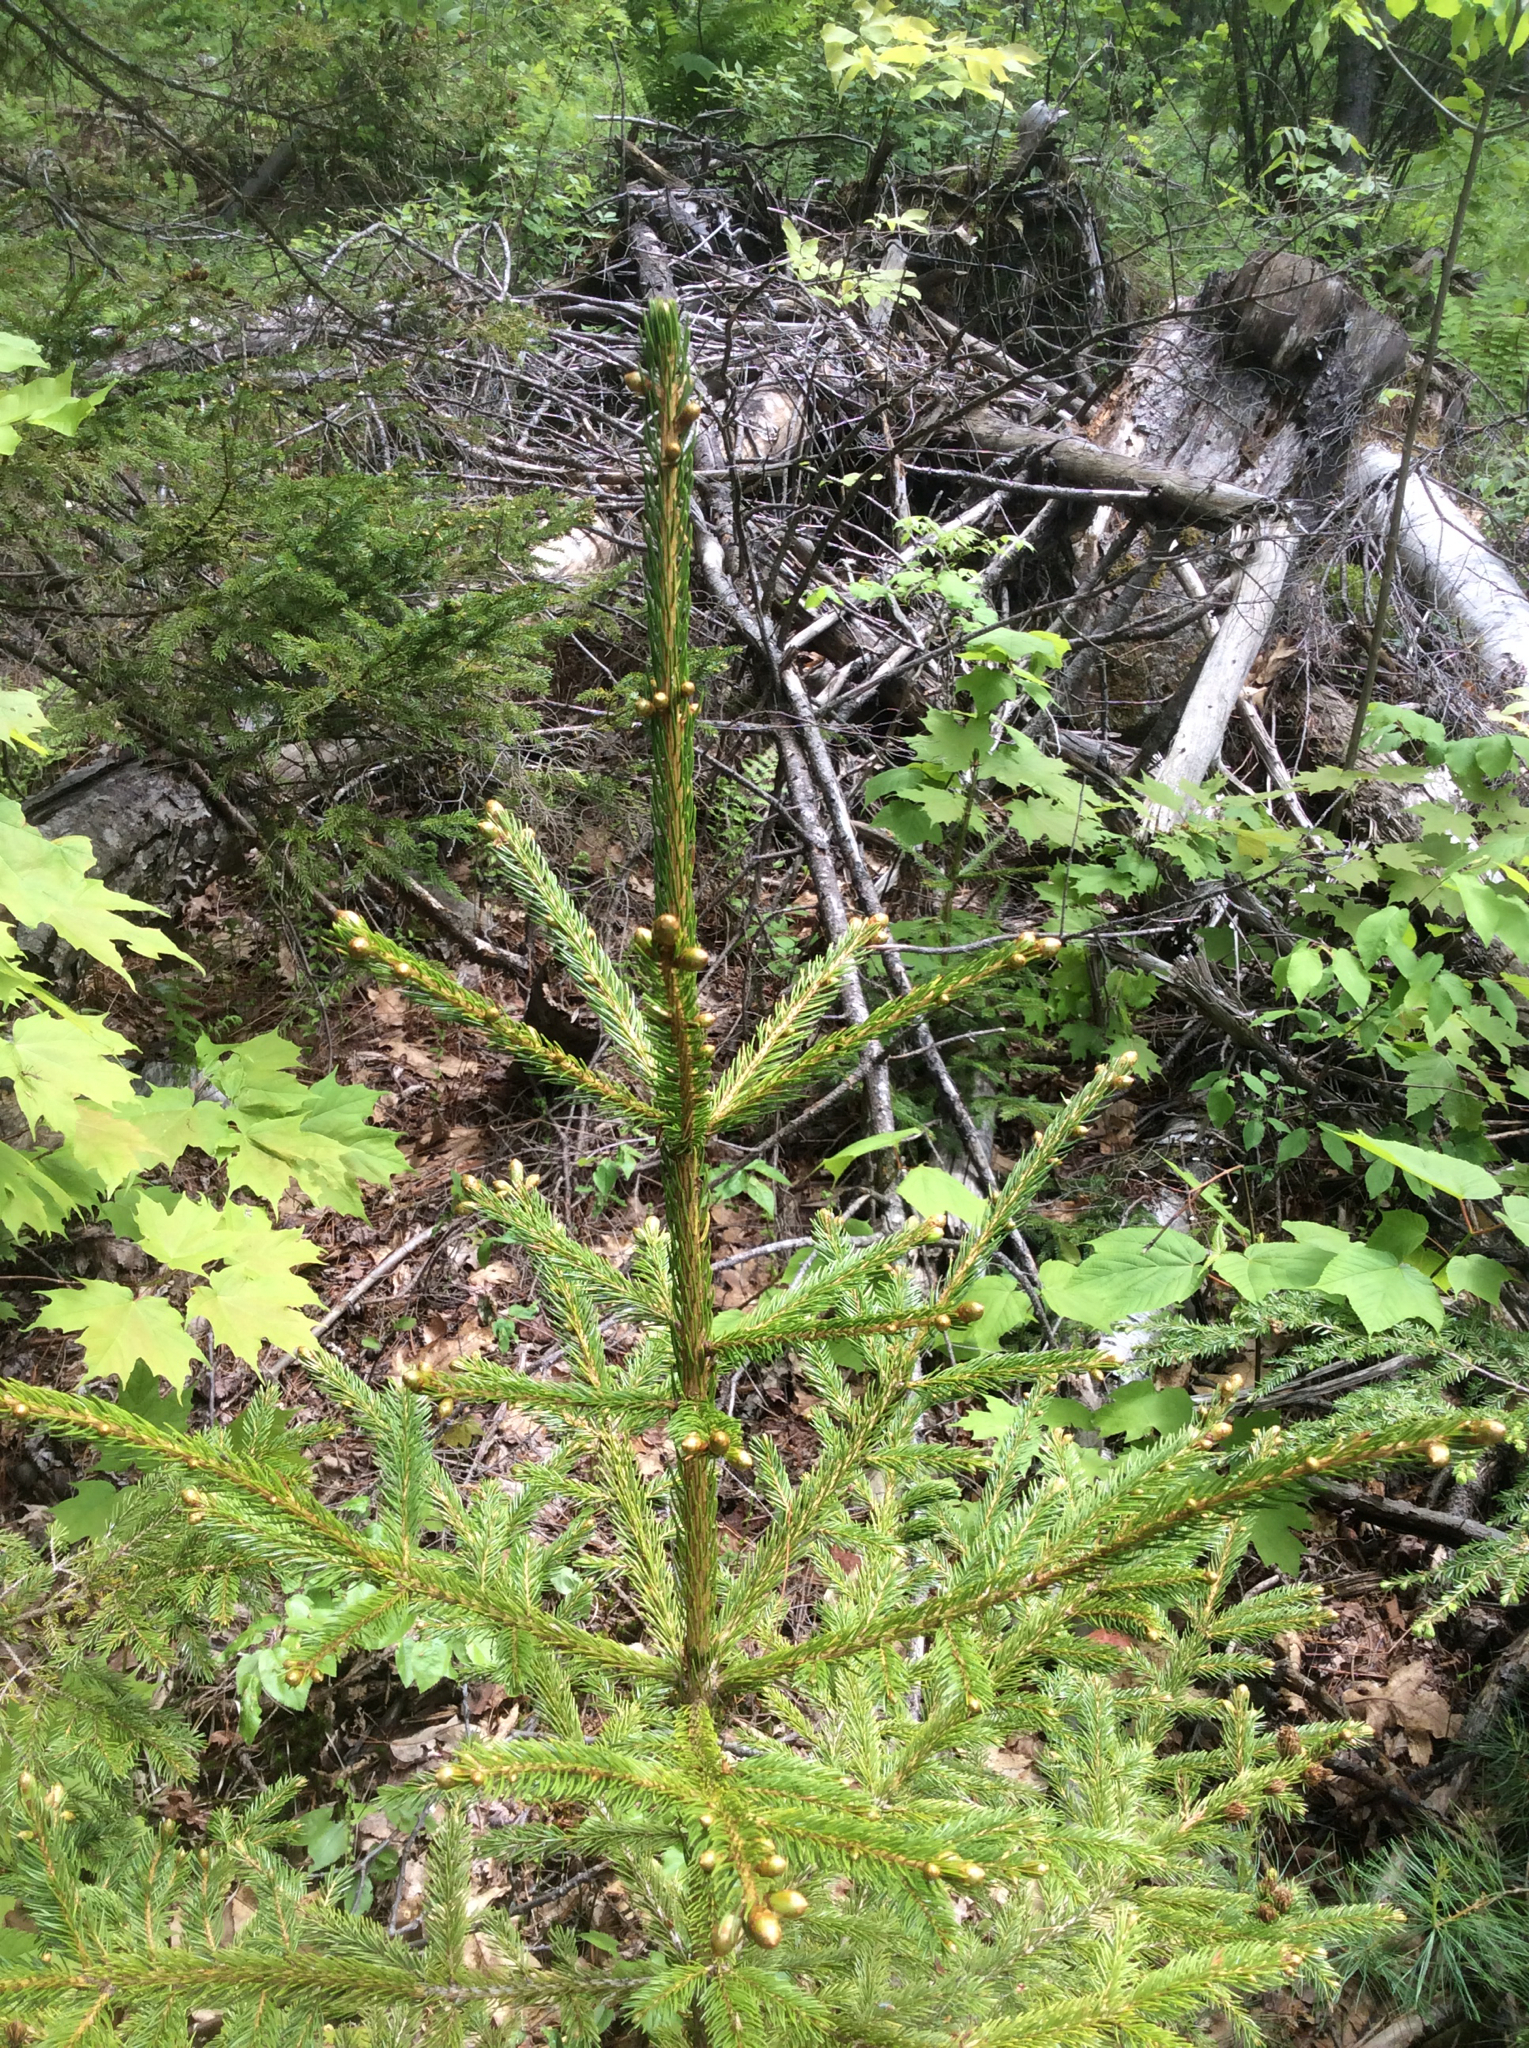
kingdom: Plantae
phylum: Tracheophyta
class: Pinopsida
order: Pinales
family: Pinaceae
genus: Picea
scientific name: Picea rubens
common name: Red spruce
